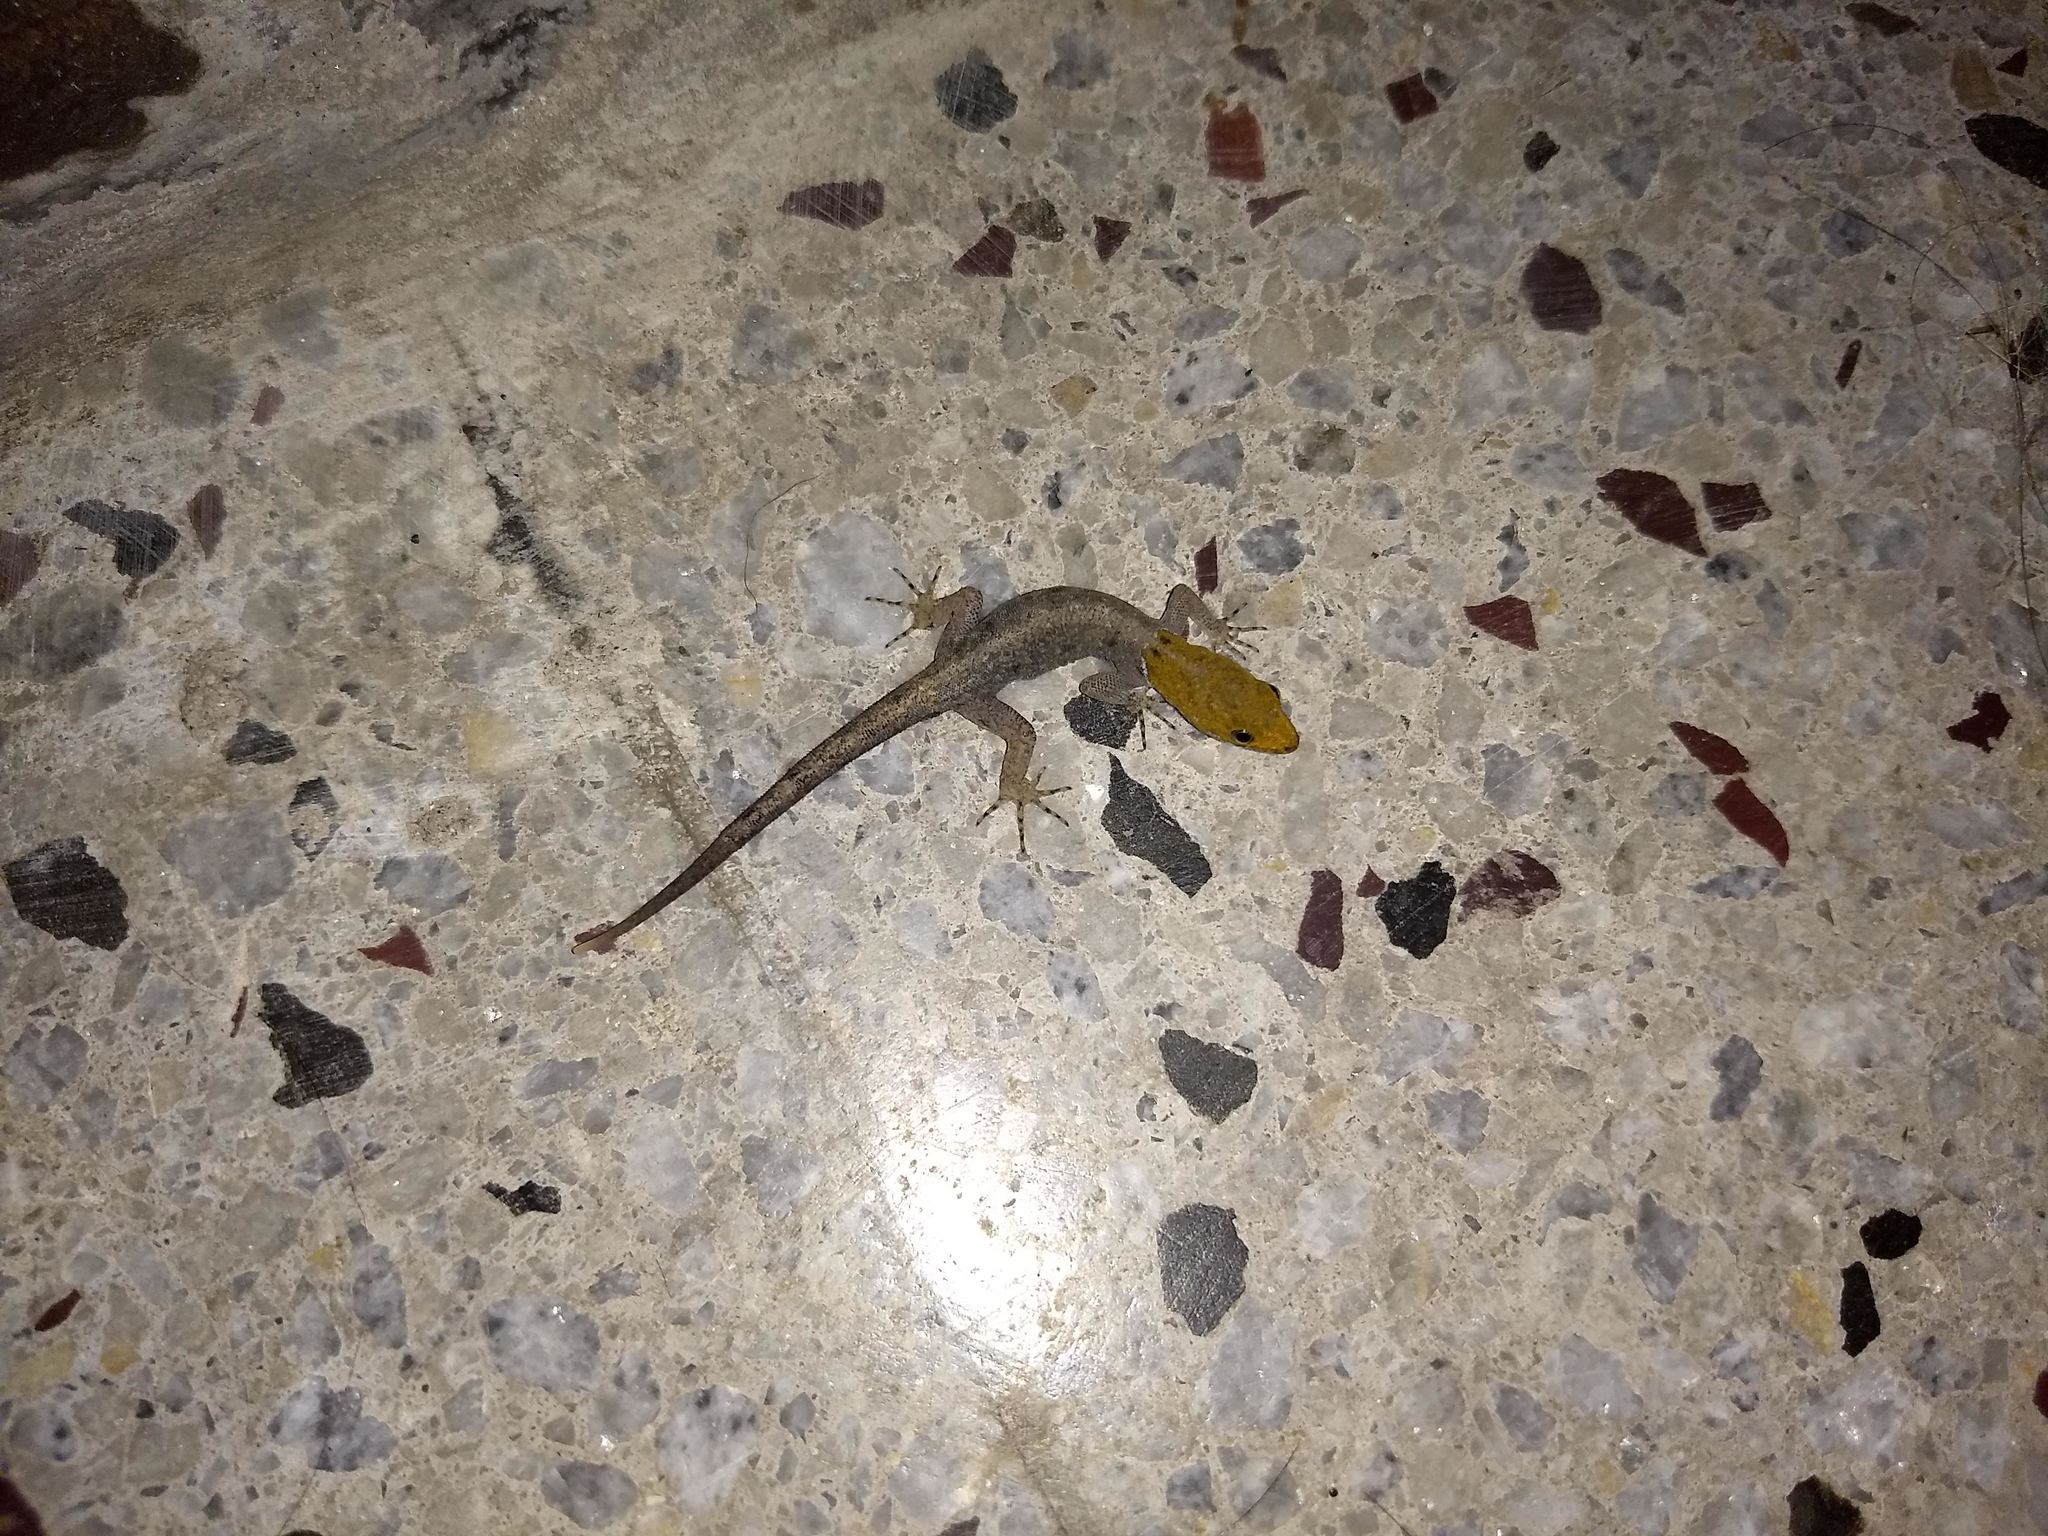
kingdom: Animalia
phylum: Chordata
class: Squamata
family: Sphaerodactylidae
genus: Gonatodes
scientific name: Gonatodes albogularis
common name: Yellow-headed gecko
